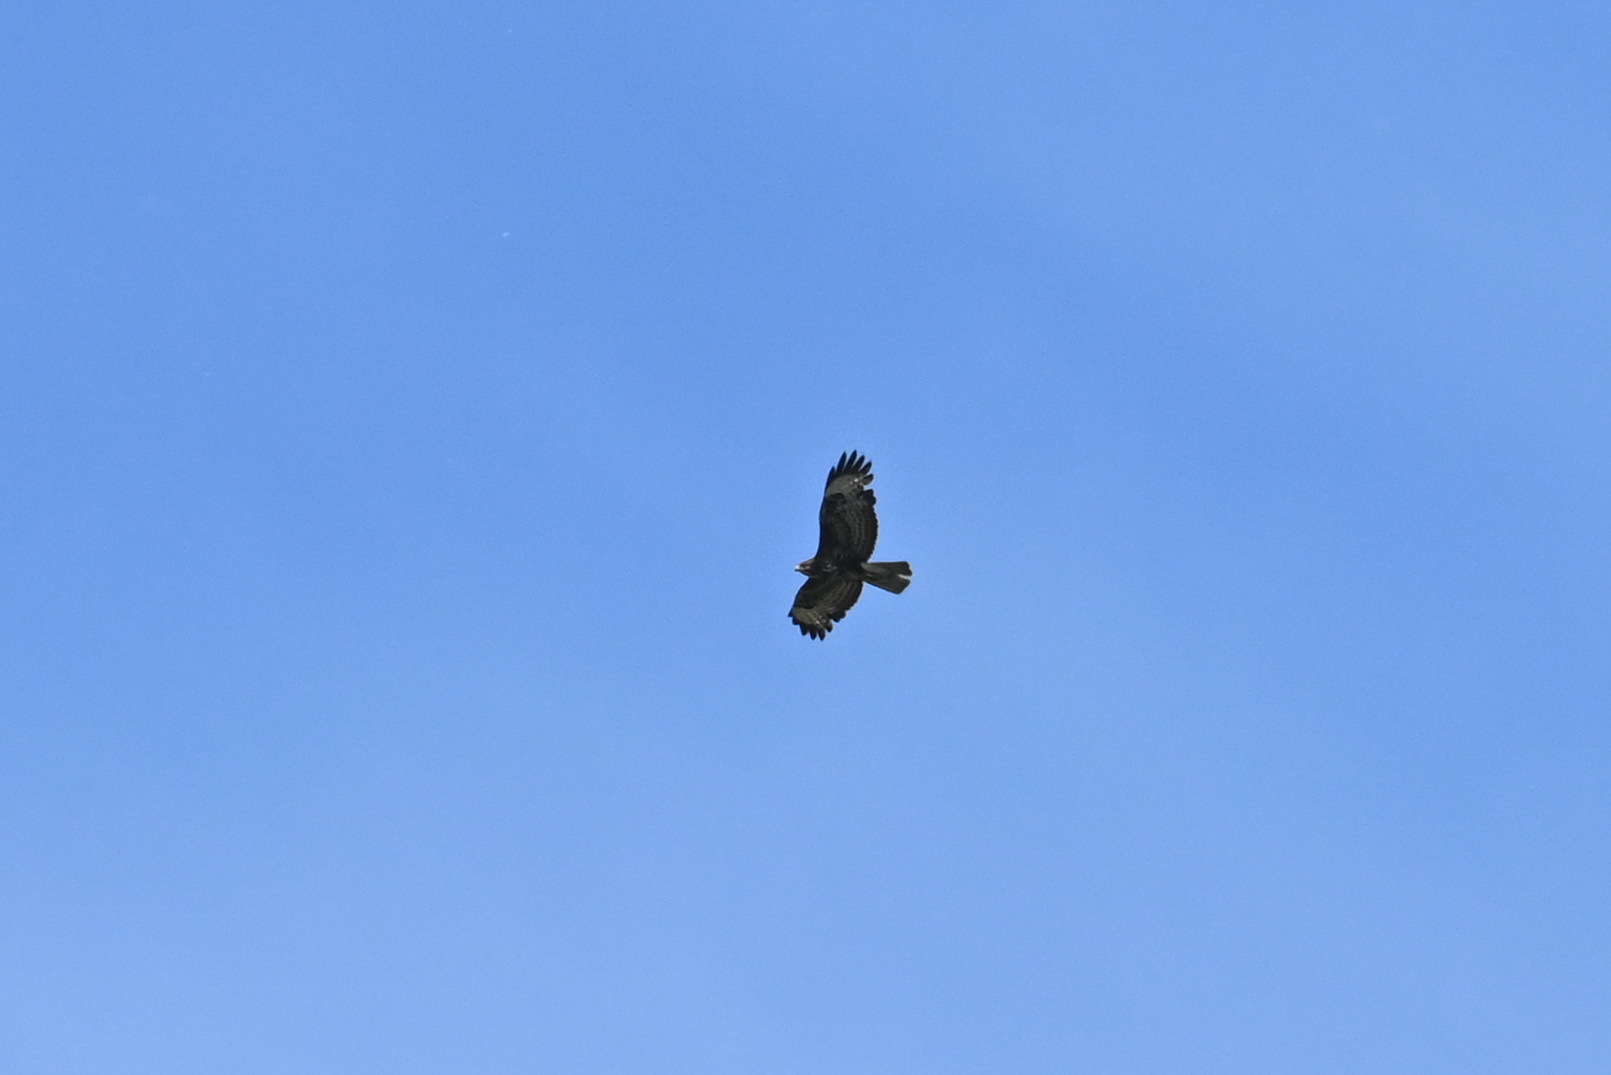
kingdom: Animalia
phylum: Chordata
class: Aves
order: Accipitriformes
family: Accipitridae
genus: Buteo
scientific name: Buteo buteo
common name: Common buzzard
